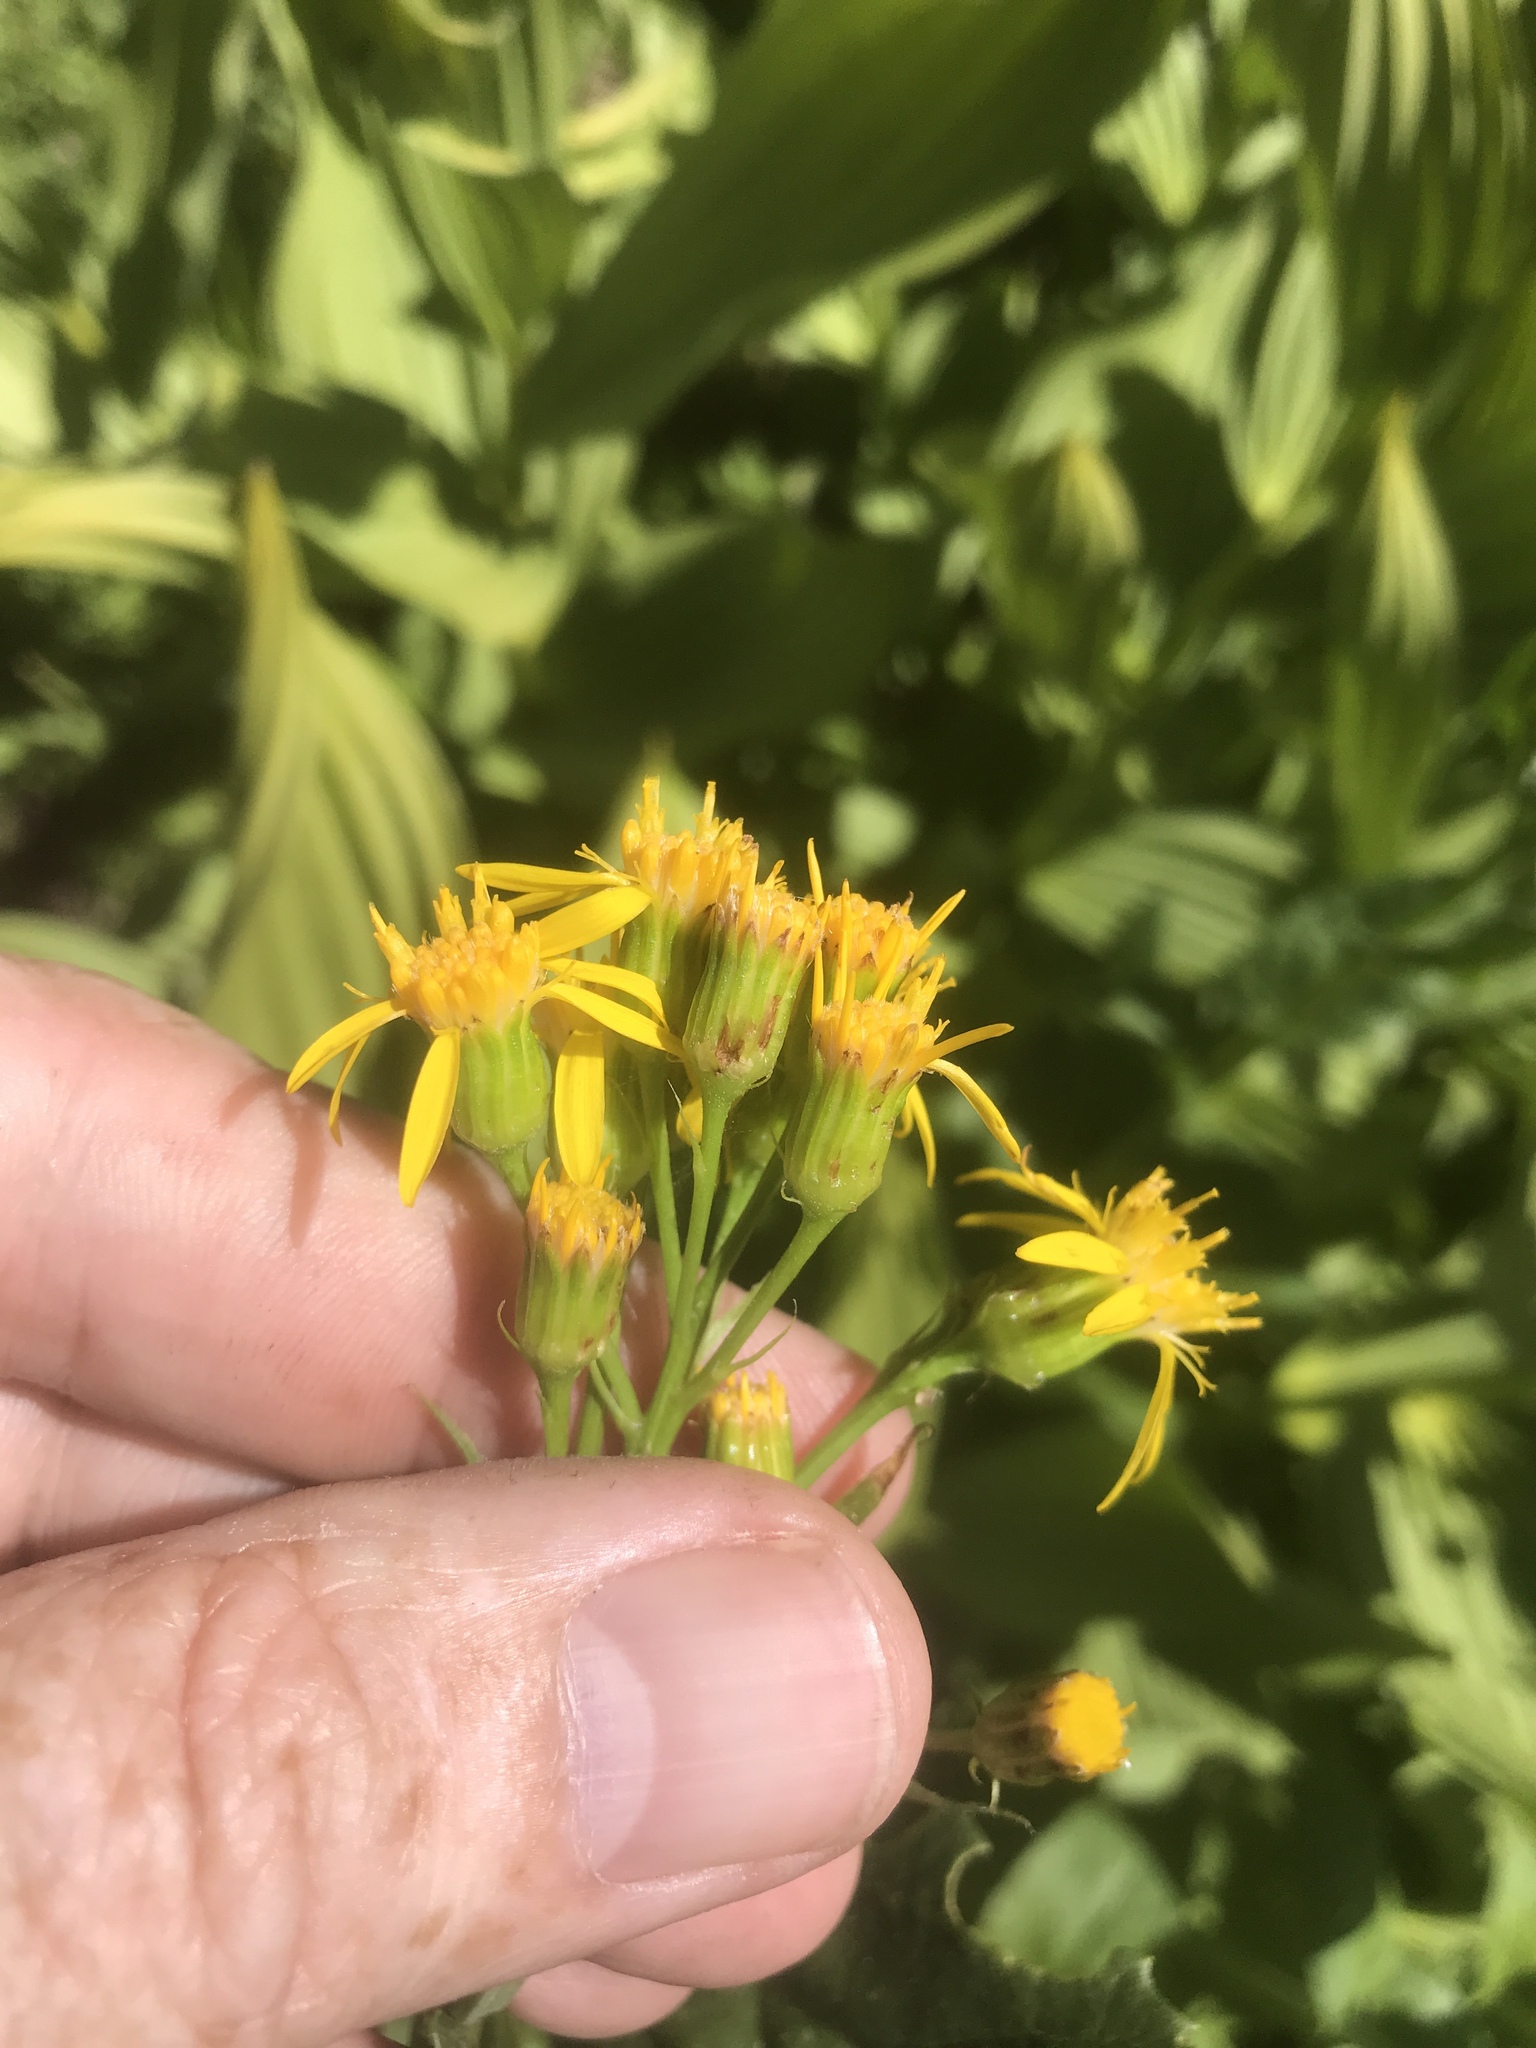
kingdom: Plantae
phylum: Tracheophyta
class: Magnoliopsida
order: Asterales
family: Asteraceae
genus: Senecio
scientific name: Senecio triangularis
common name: Arrowleaf butterweed
